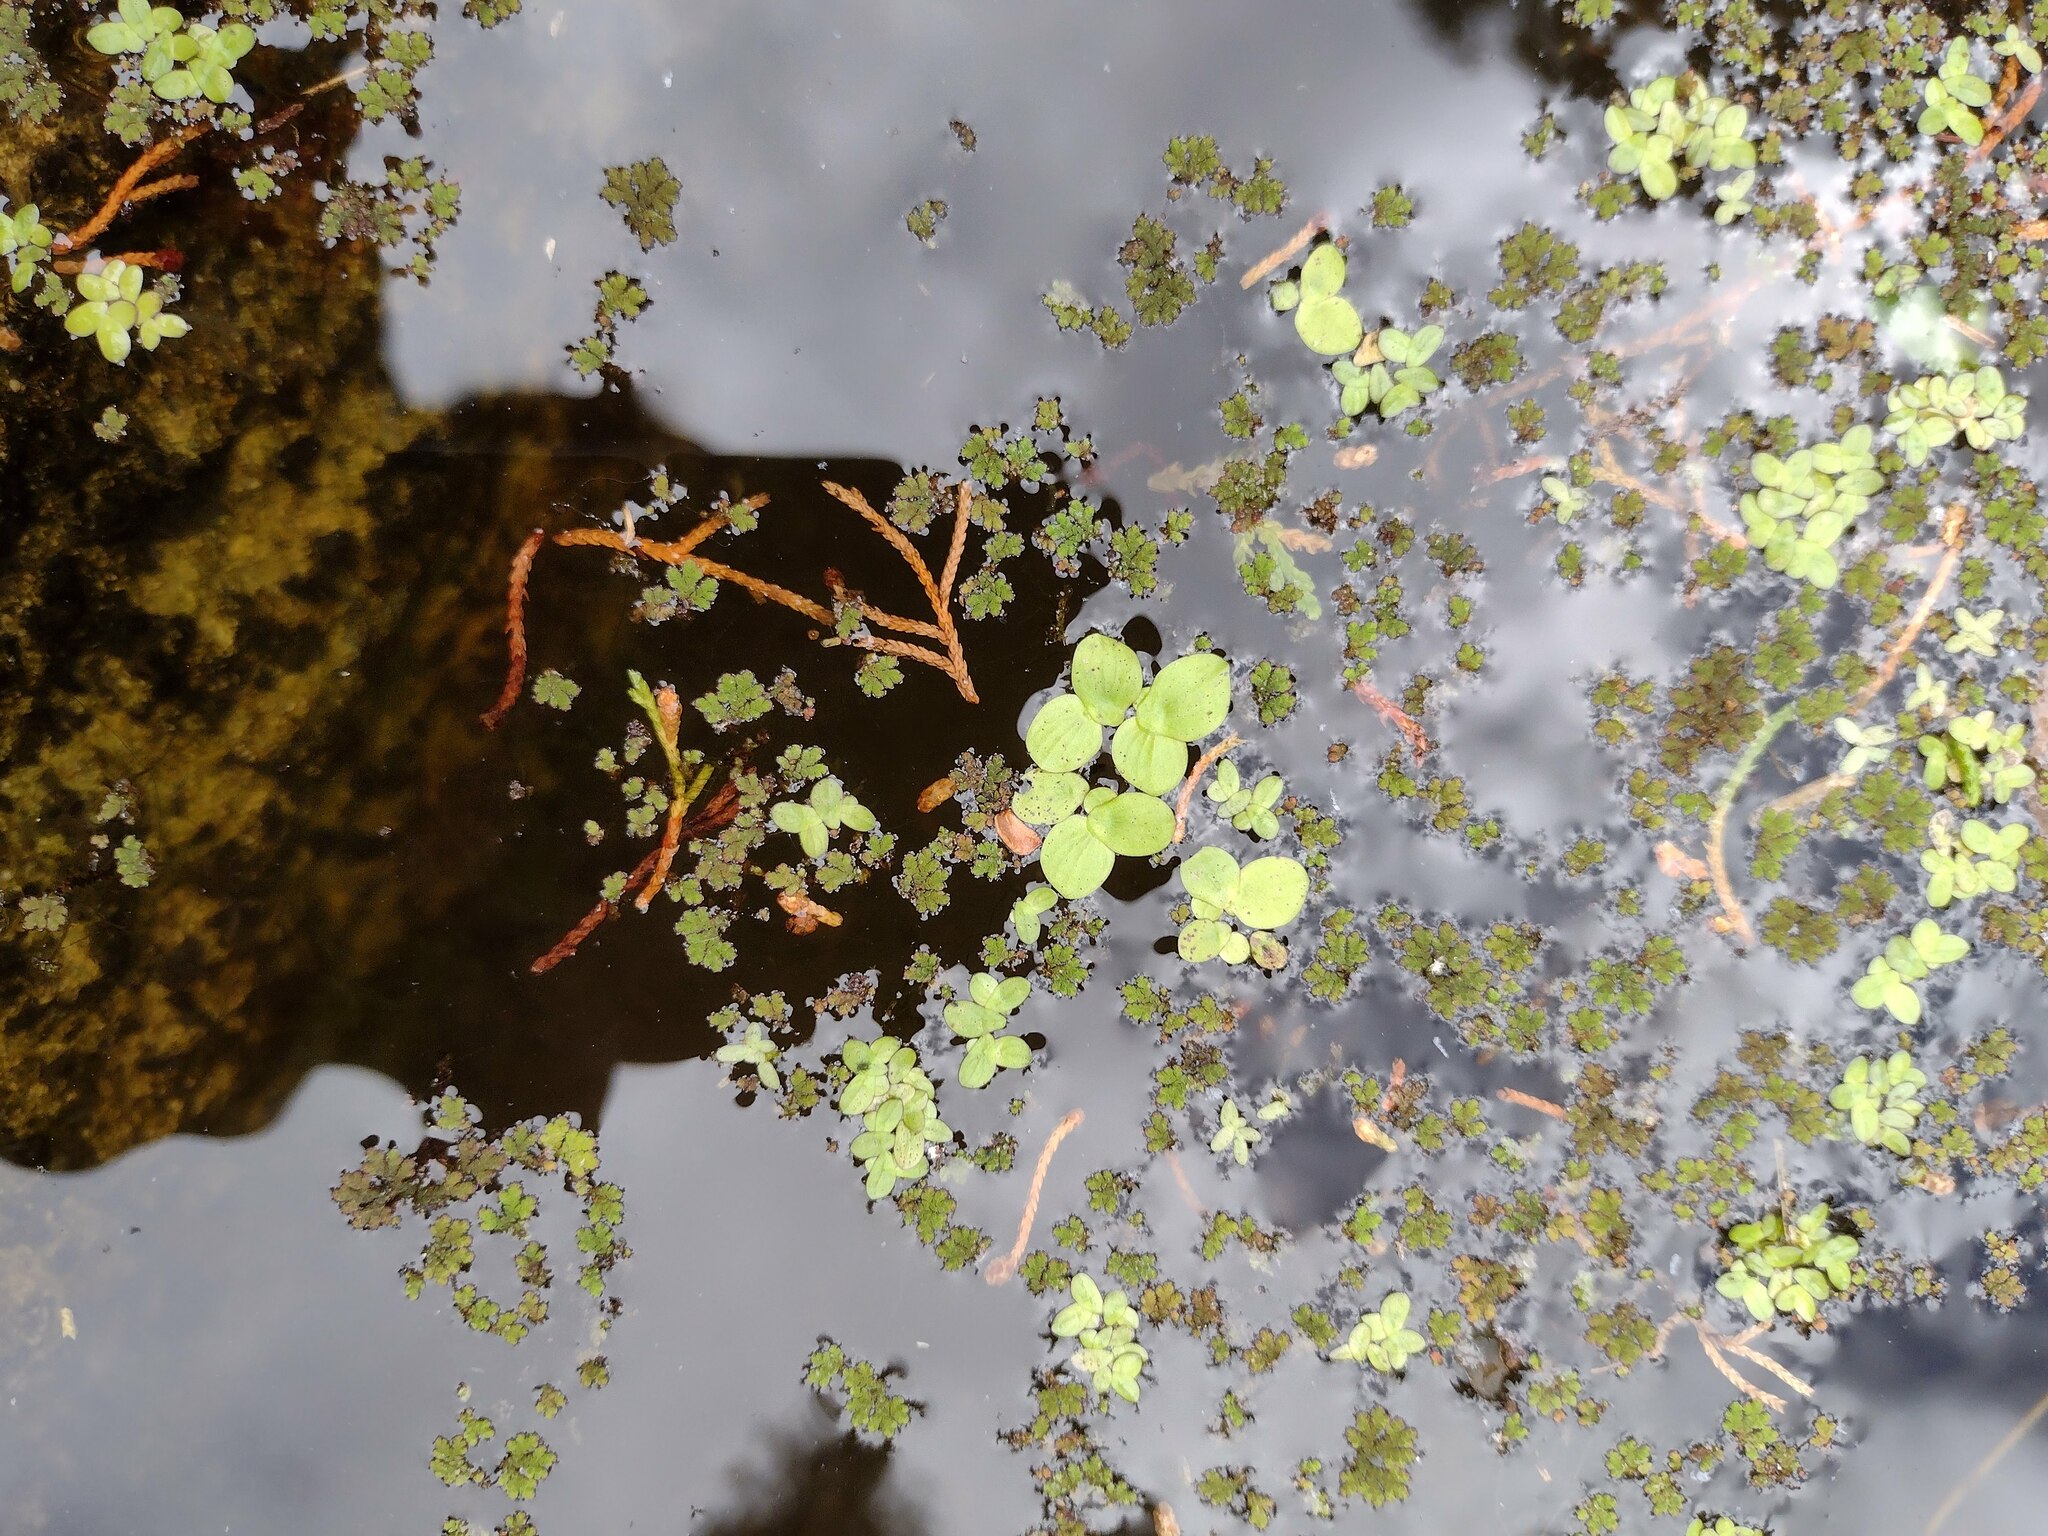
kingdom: Plantae
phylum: Tracheophyta
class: Liliopsida
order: Alismatales
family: Araceae
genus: Spirodela
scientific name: Spirodela polyrhiza
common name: Great duckweed
